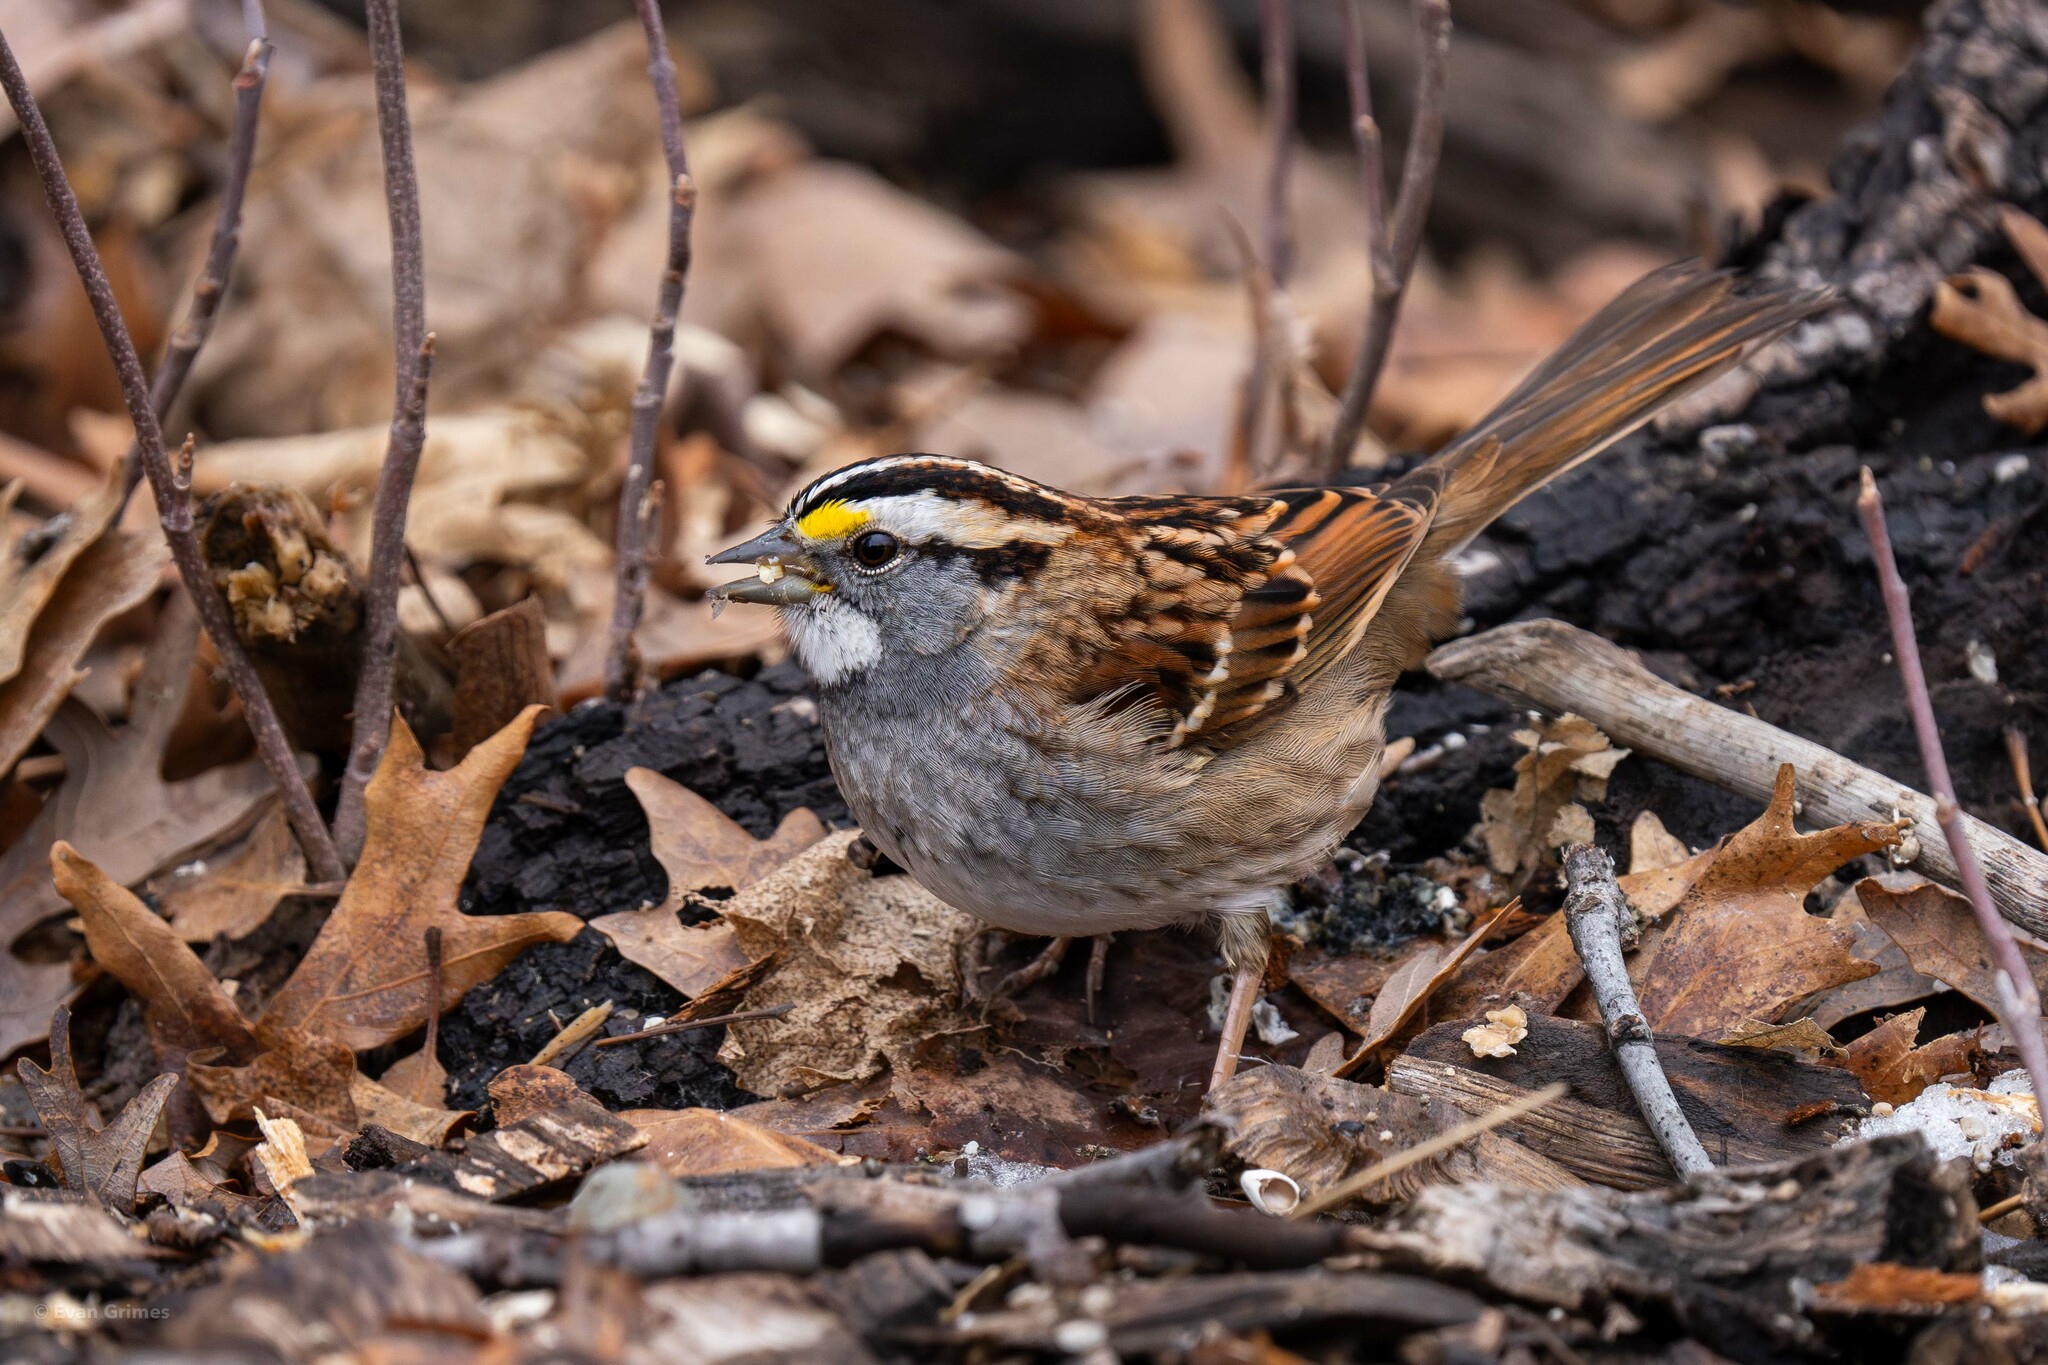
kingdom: Animalia
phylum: Chordata
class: Aves
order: Passeriformes
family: Passerellidae
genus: Zonotrichia
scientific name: Zonotrichia albicollis
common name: White-throated sparrow
